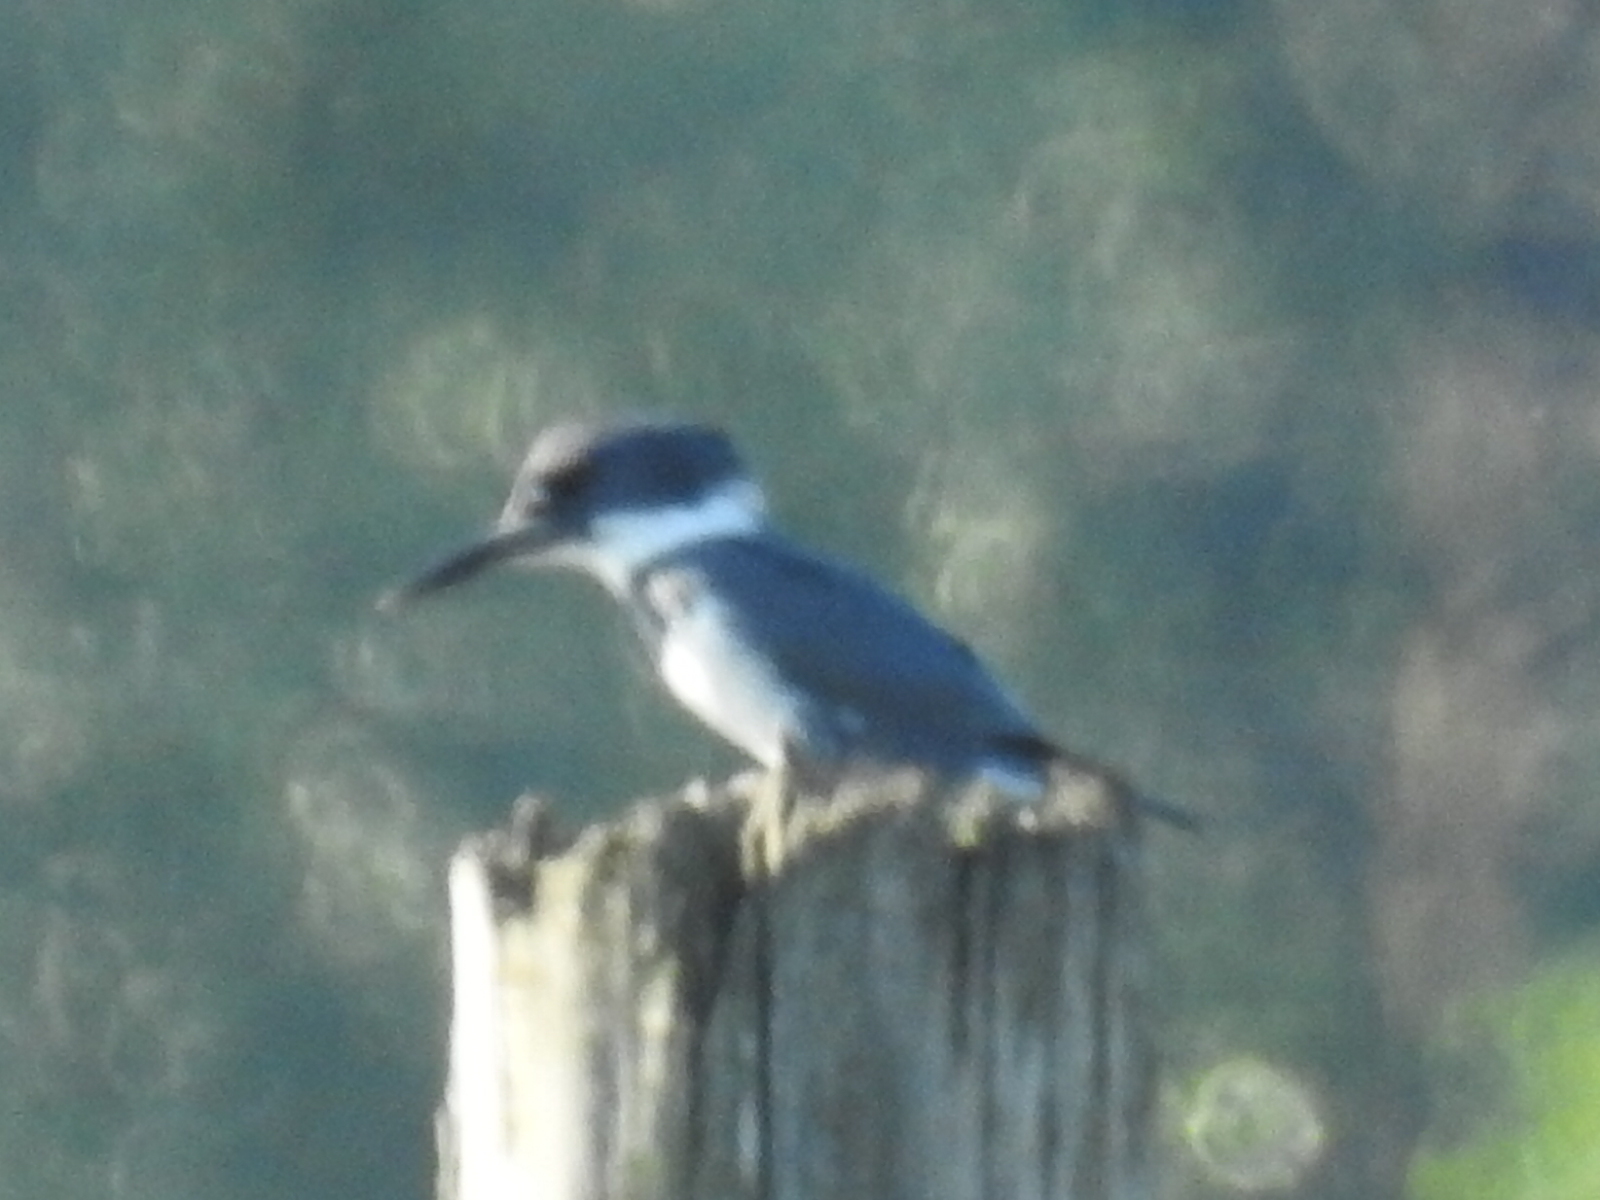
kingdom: Animalia
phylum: Chordata
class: Aves
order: Coraciiformes
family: Alcedinidae
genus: Megaceryle
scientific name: Megaceryle alcyon
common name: Belted kingfisher
